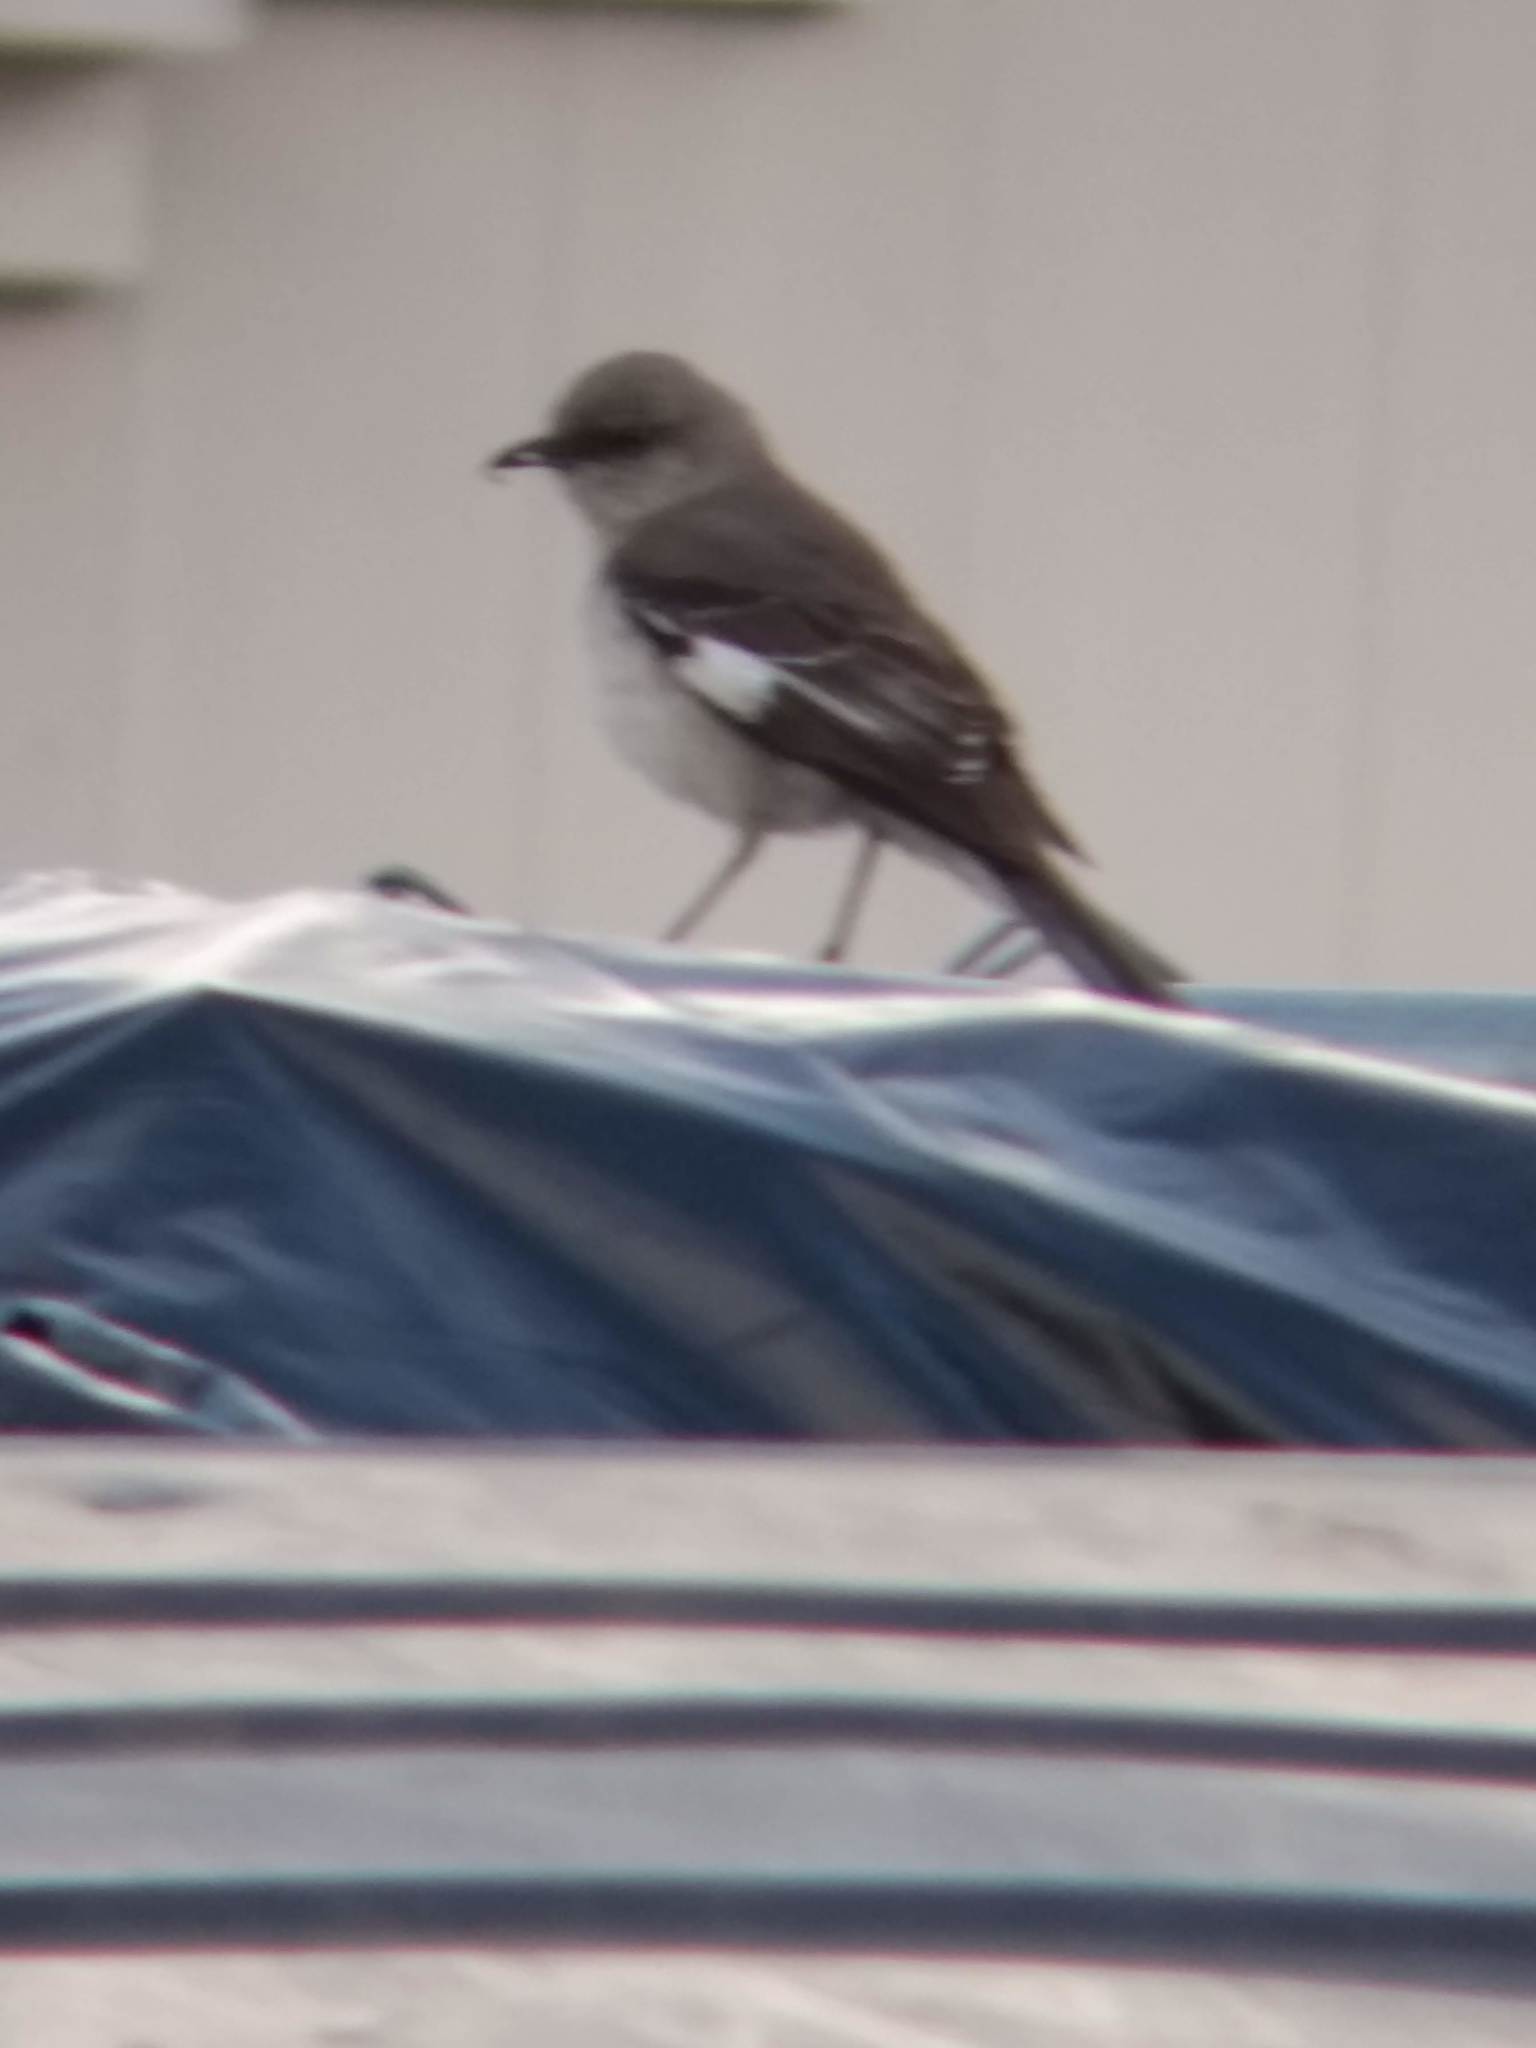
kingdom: Animalia
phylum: Chordata
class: Aves
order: Passeriformes
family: Mimidae
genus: Mimus
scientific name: Mimus polyglottos
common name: Northern mockingbird
